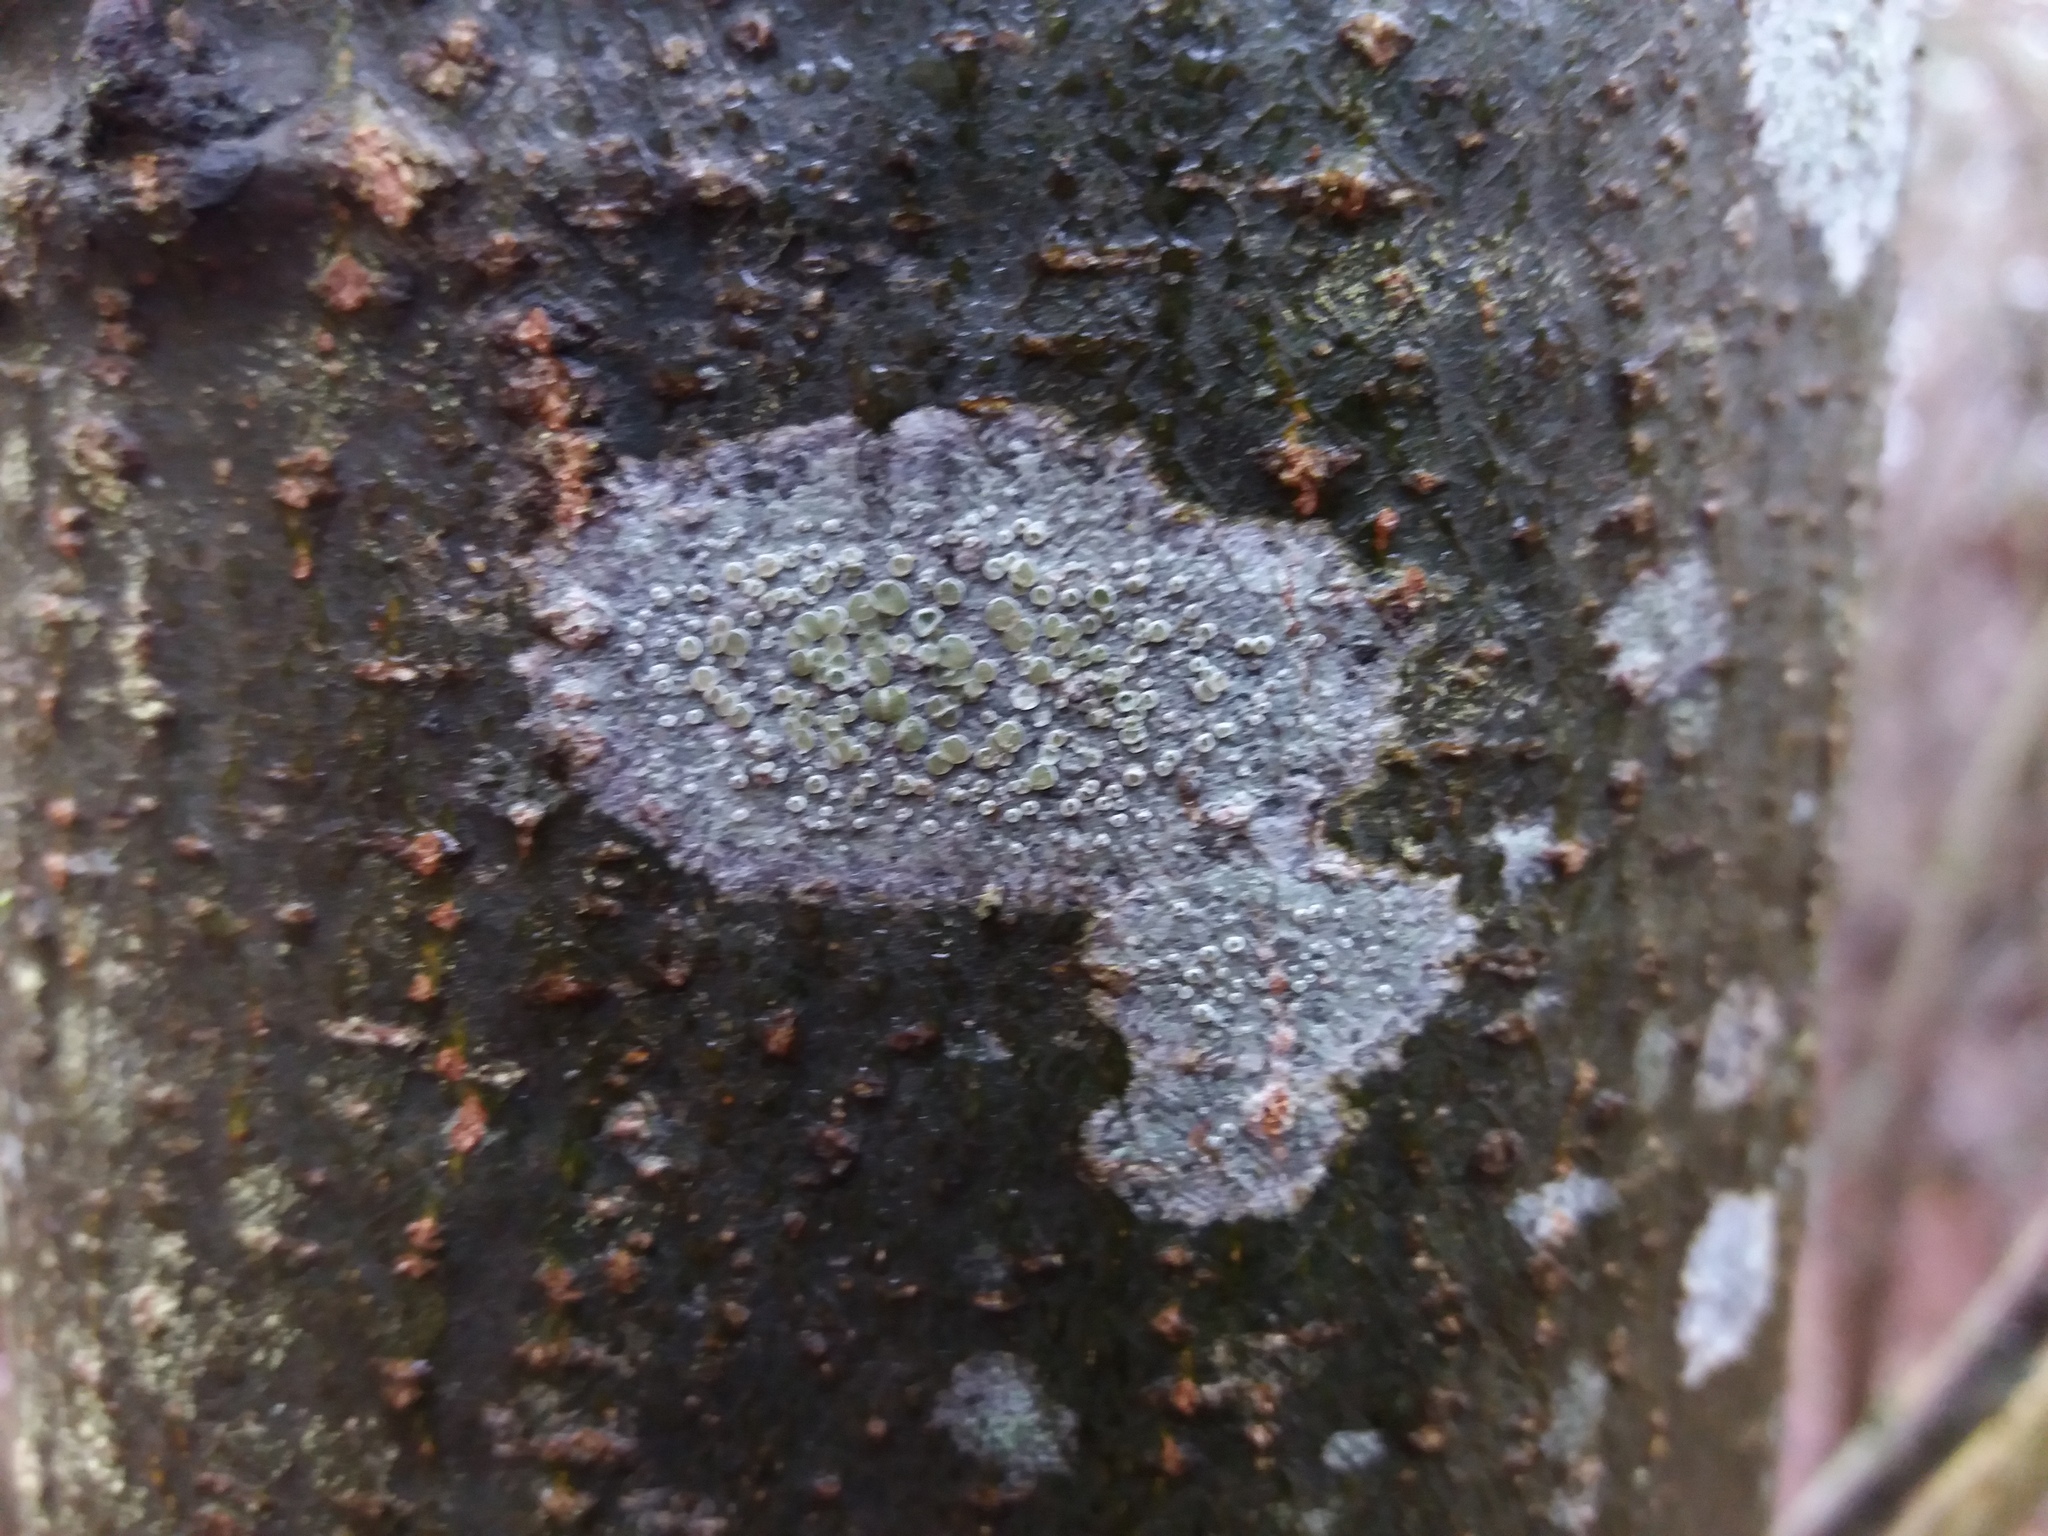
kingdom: Fungi
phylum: Ascomycota
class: Lecanoromycetes
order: Lecanorales
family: Lecanoraceae
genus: Lecanora
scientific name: Lecanora
